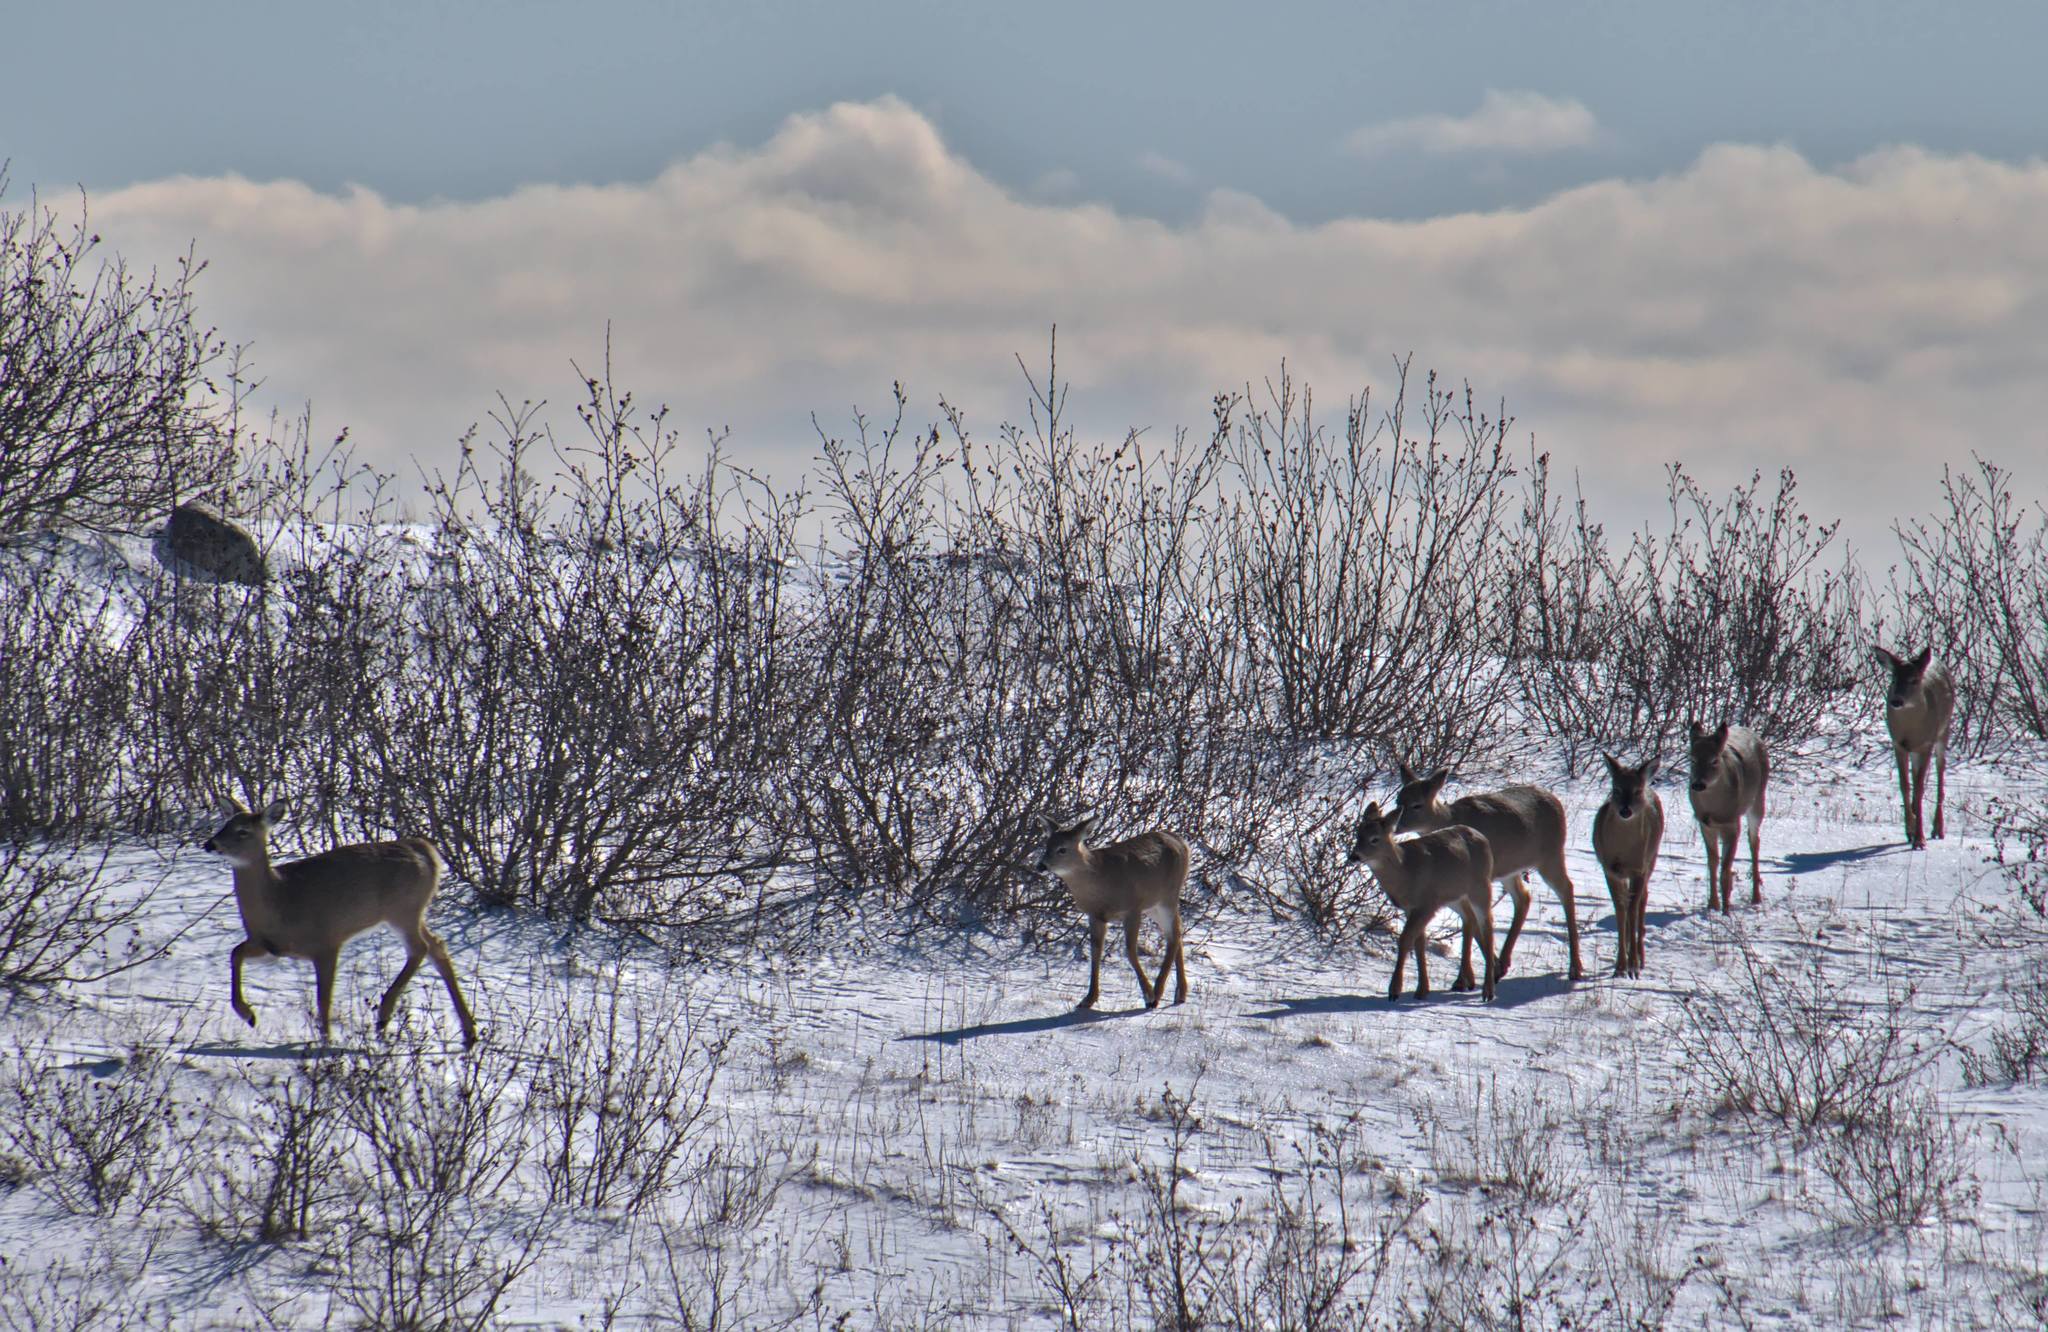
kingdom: Animalia
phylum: Chordata
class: Mammalia
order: Artiodactyla
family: Cervidae
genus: Odocoileus
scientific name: Odocoileus virginianus
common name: White-tailed deer
